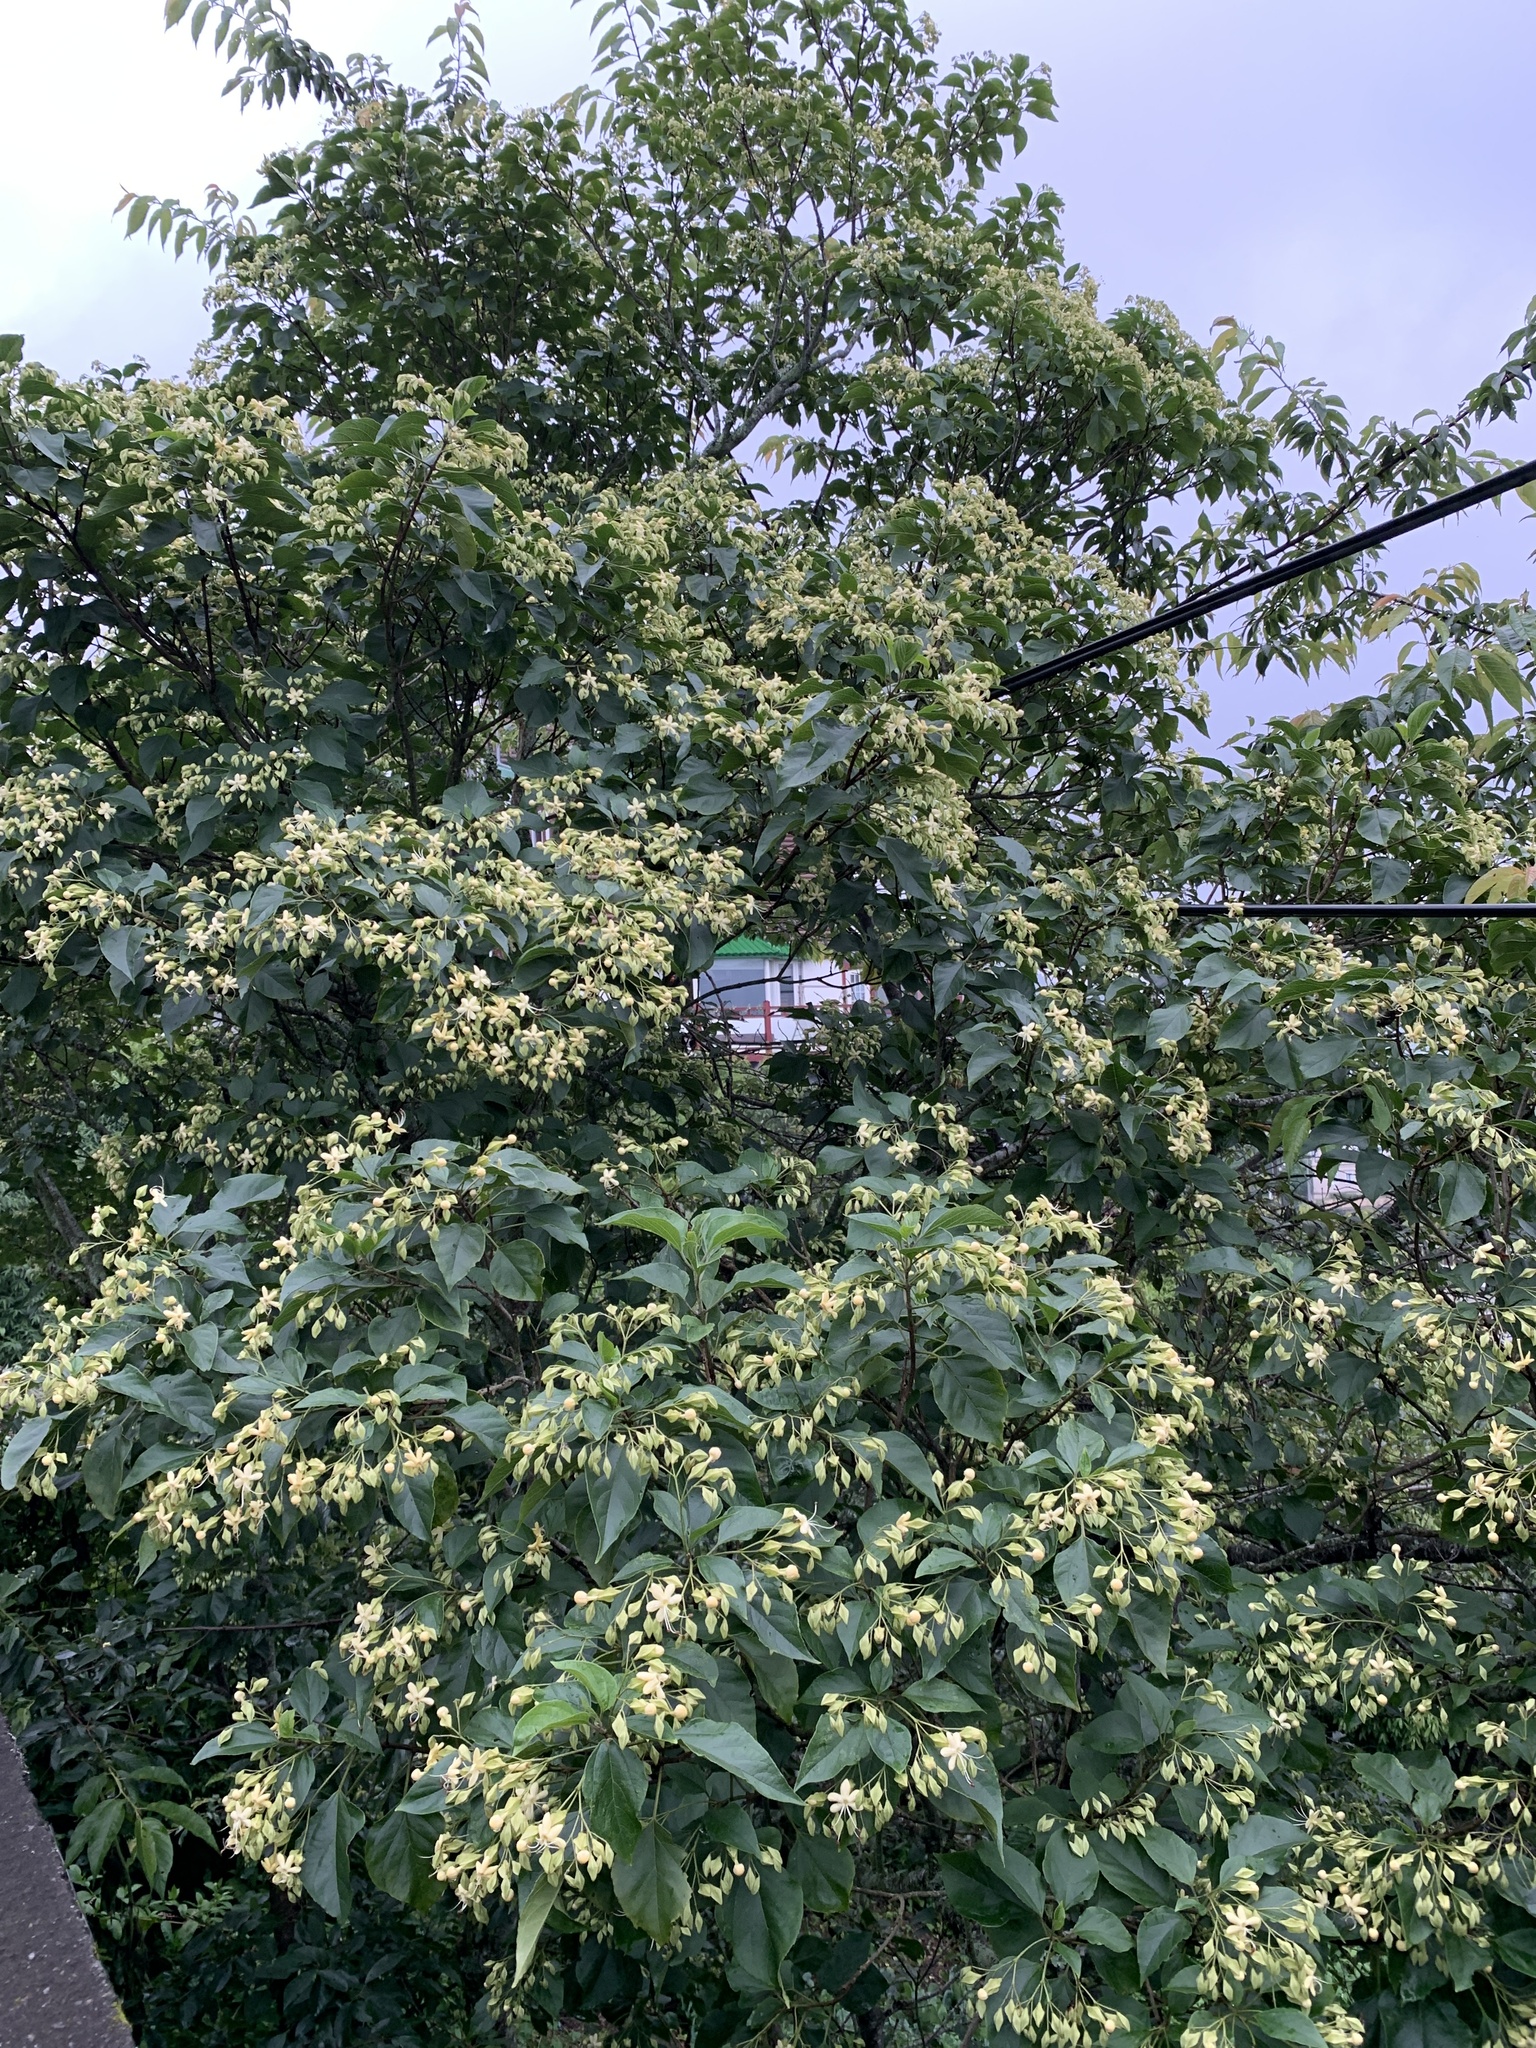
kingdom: Plantae
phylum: Tracheophyta
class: Magnoliopsida
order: Lamiales
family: Lamiaceae
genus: Clerodendrum
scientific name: Clerodendrum trichotomum
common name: Harlequin glorybower
